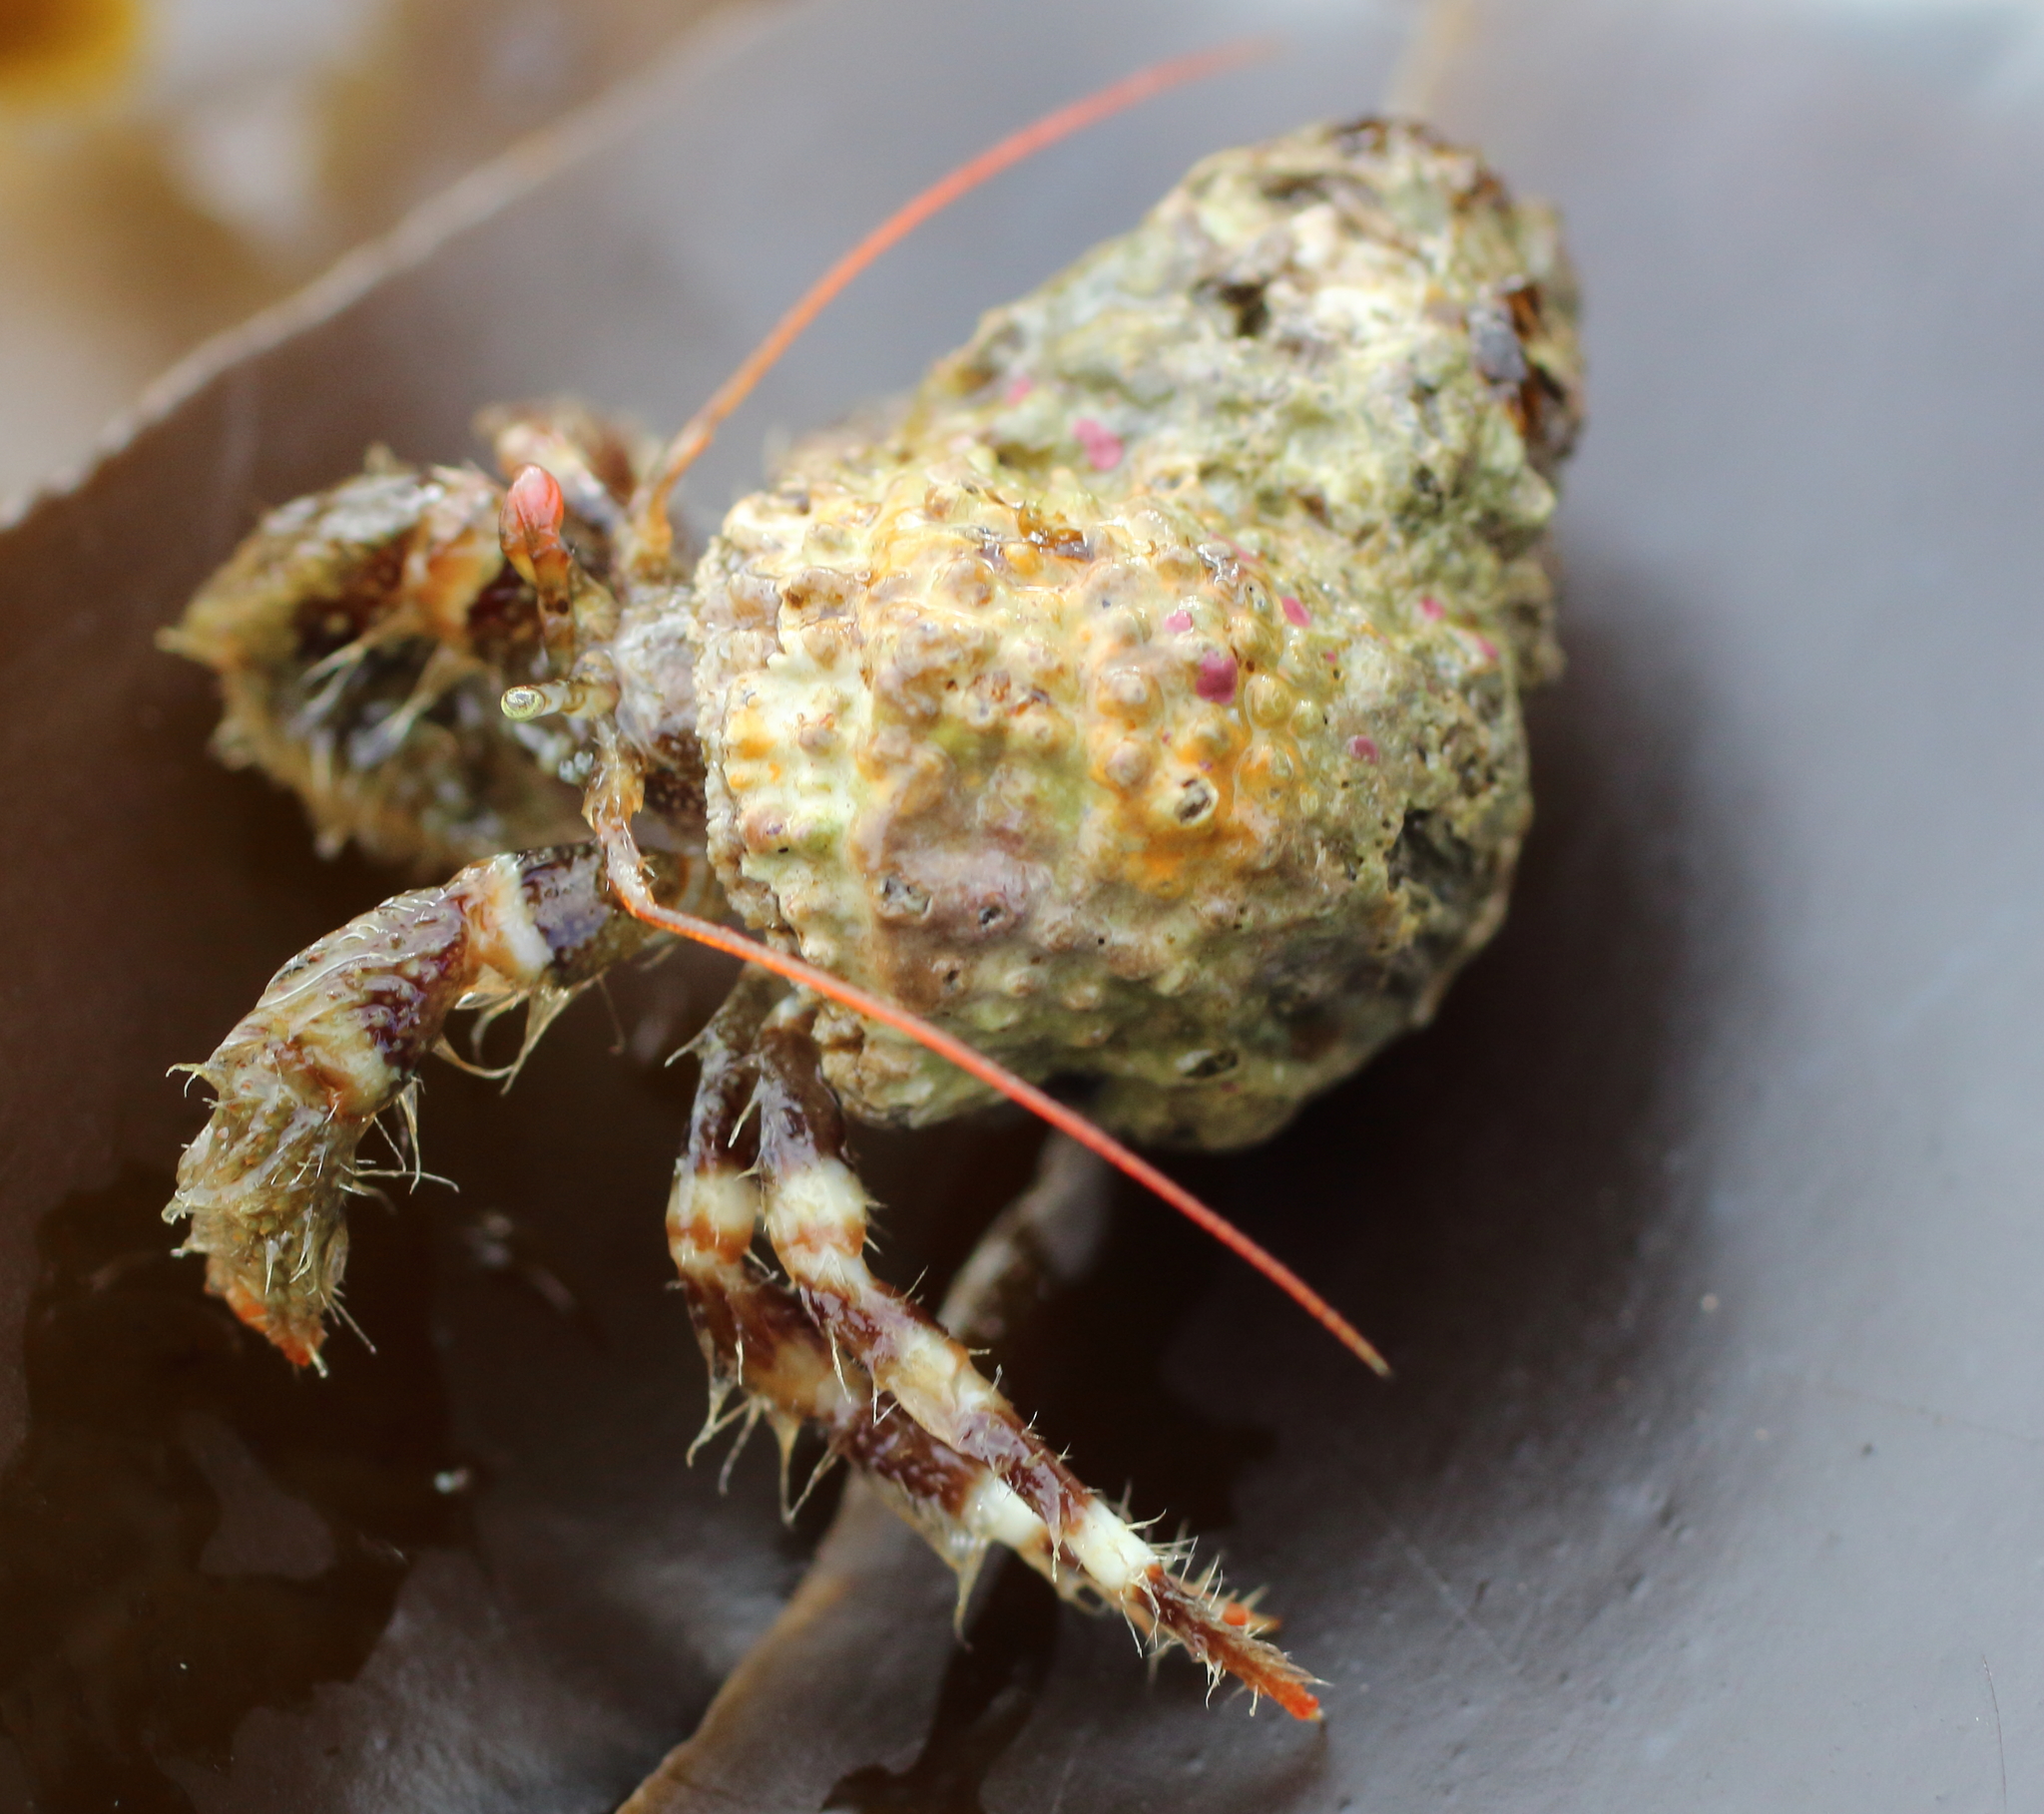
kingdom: Animalia
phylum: Arthropoda
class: Malacostraca
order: Decapoda
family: Paguridae
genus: Pagurus
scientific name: Pagurus caurinus
